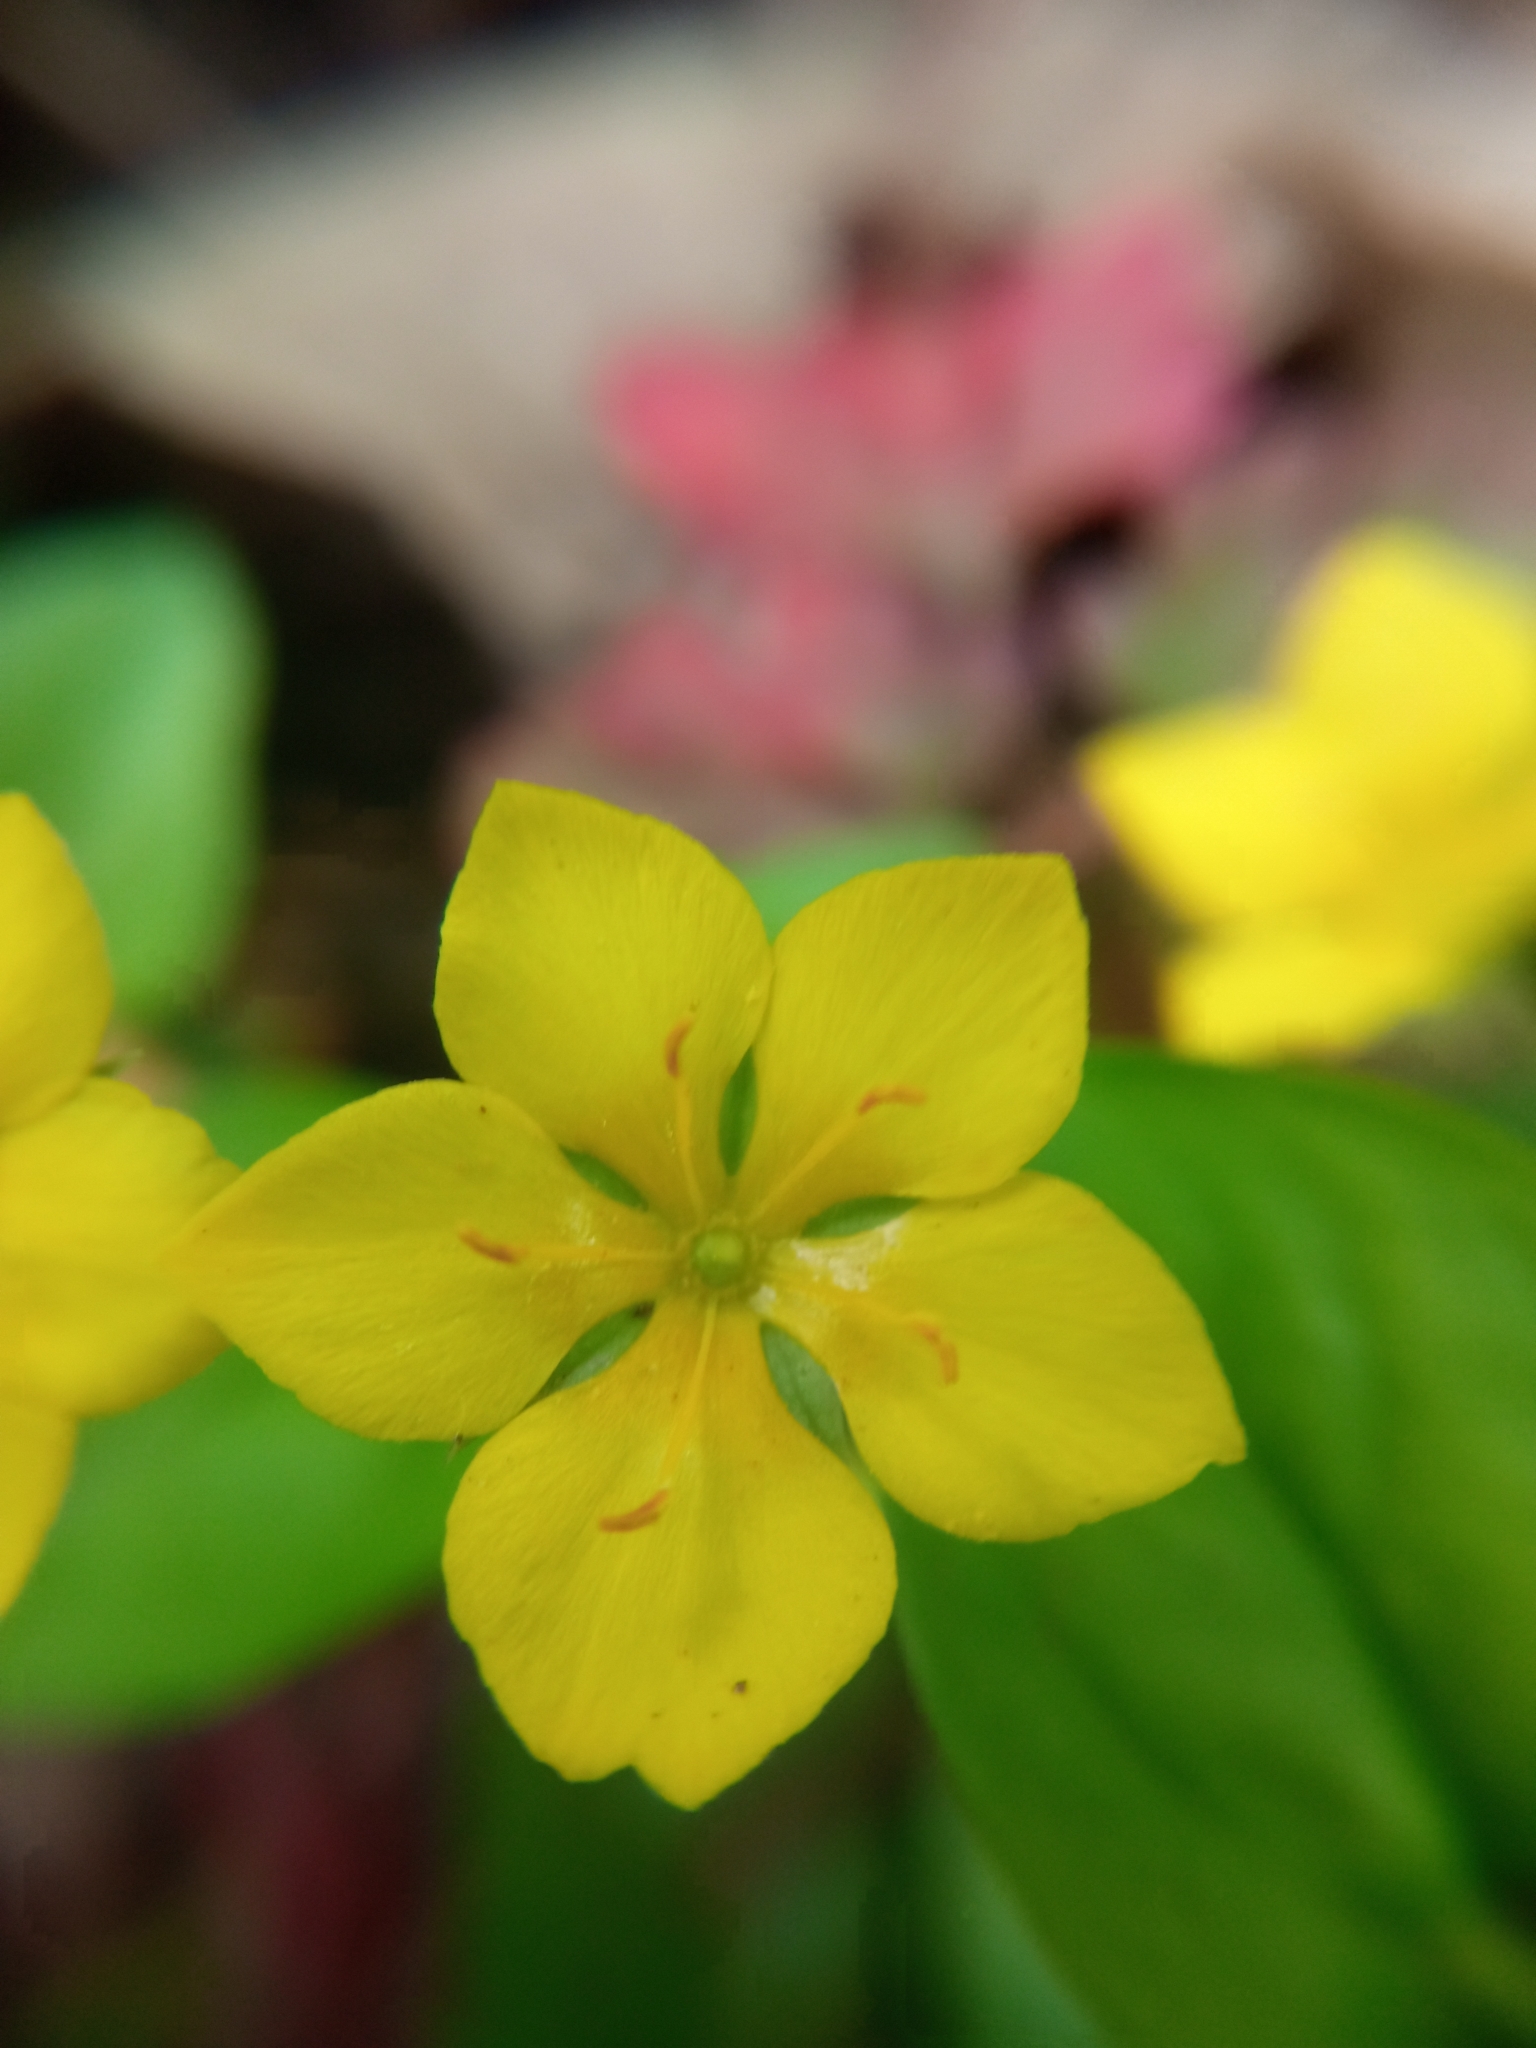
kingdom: Plantae
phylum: Tracheophyta
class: Magnoliopsida
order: Ericales
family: Primulaceae
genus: Lysimachia
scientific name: Lysimachia nemorum
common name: Yellow pimpernel
